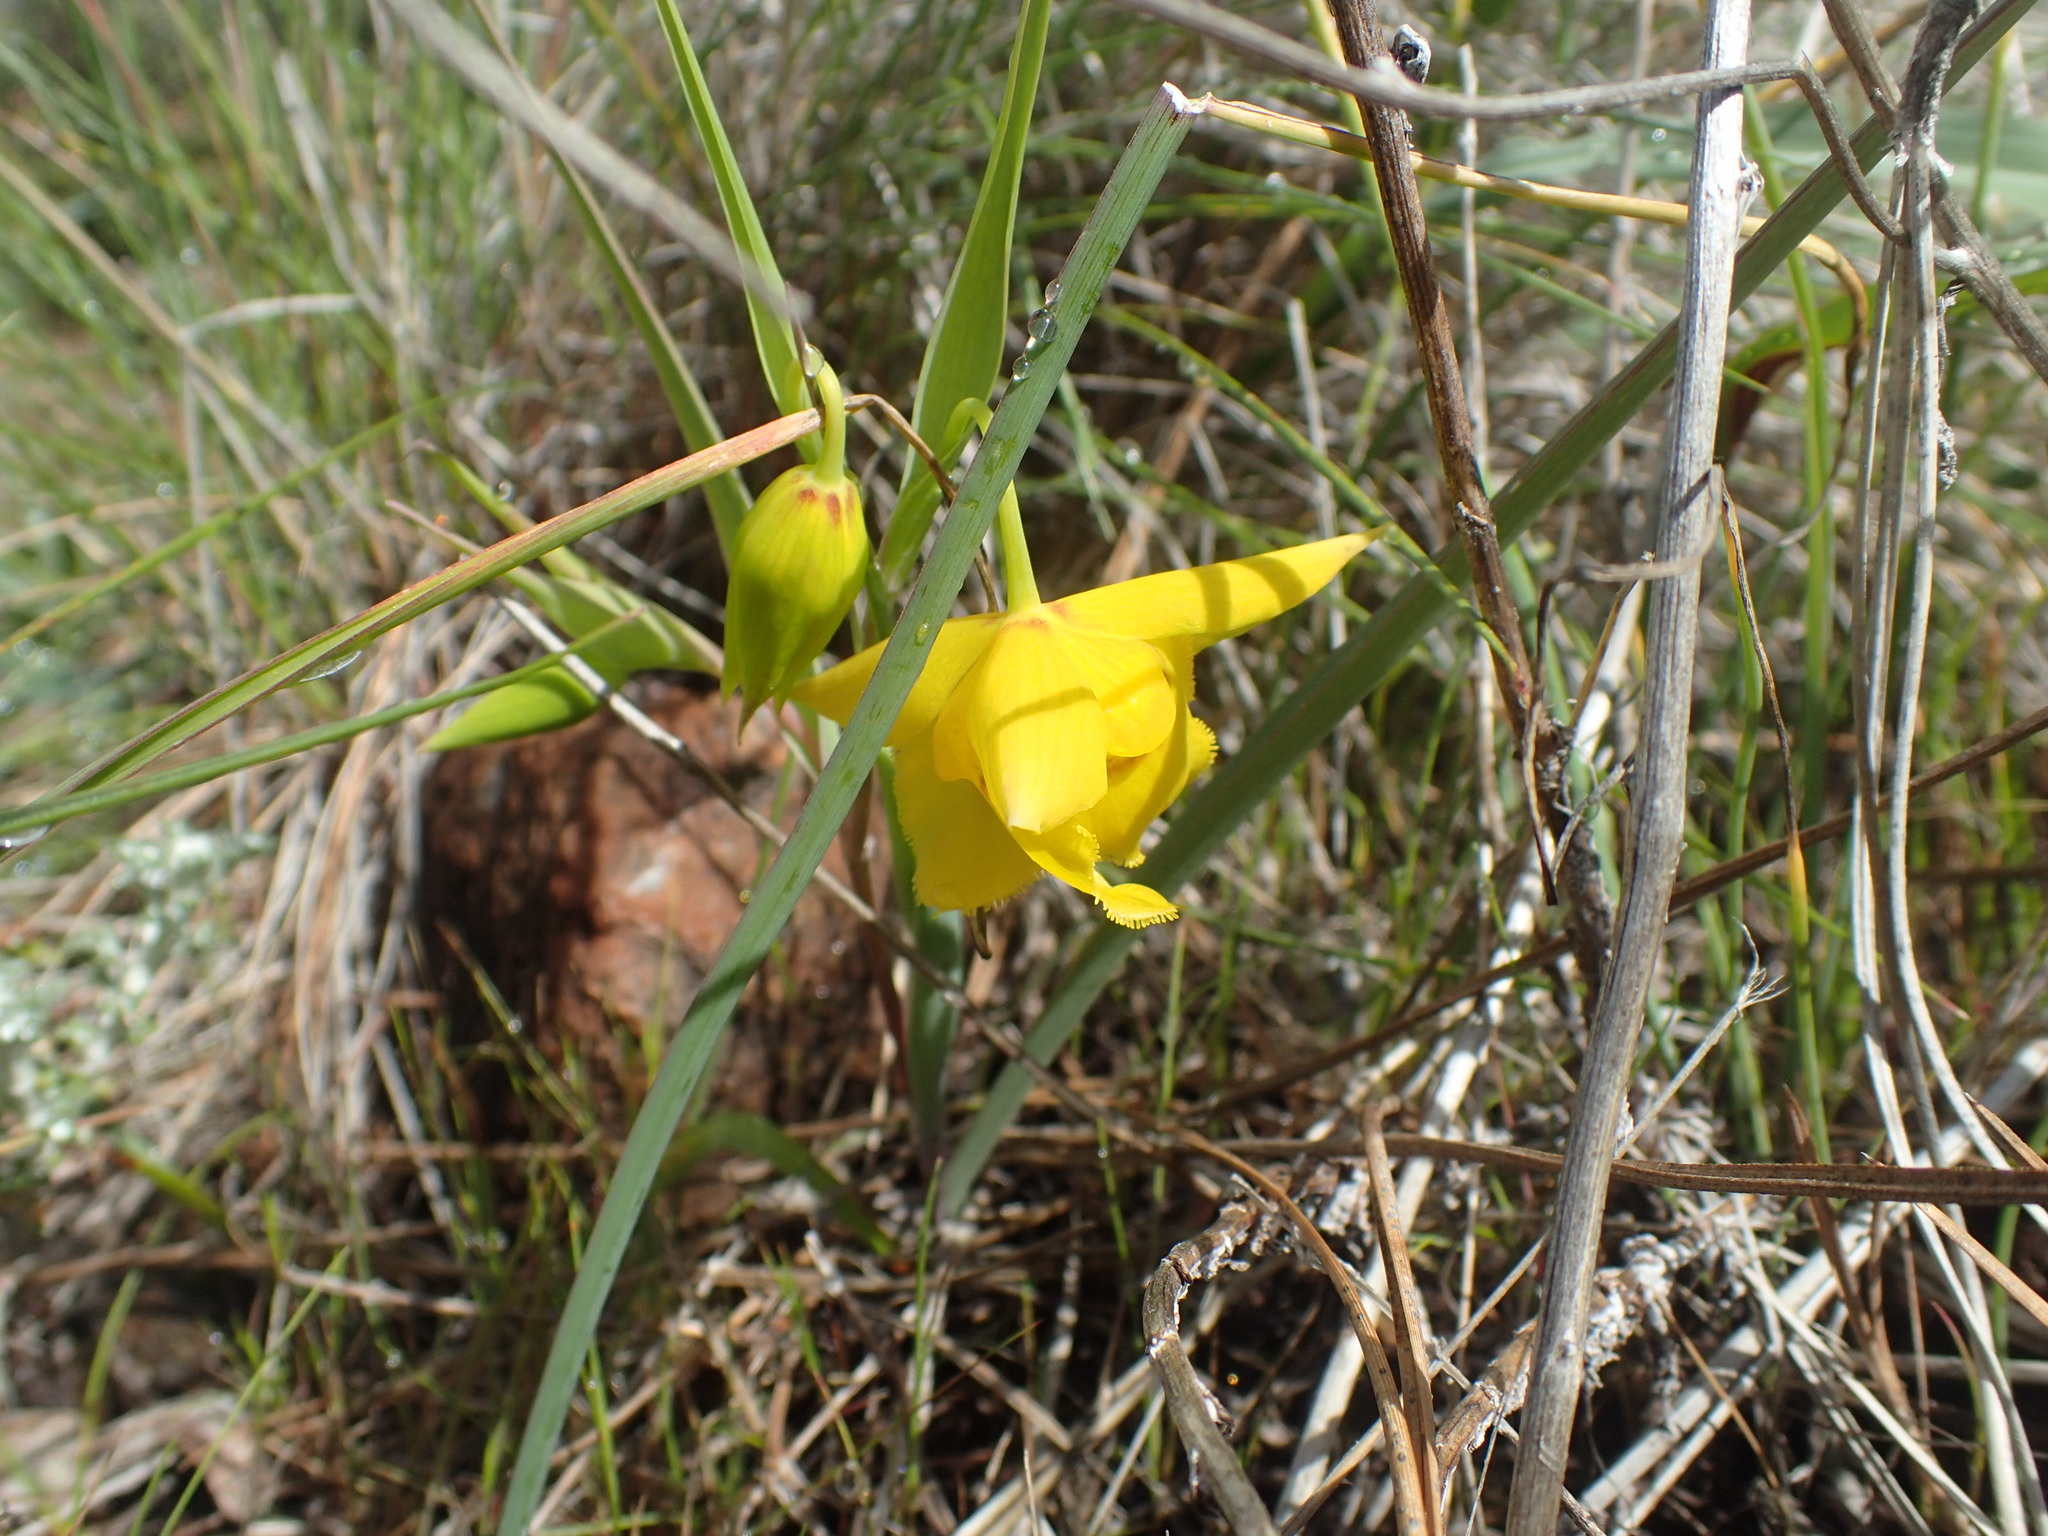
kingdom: Plantae
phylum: Tracheophyta
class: Liliopsida
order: Liliales
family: Liliaceae
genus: Calochortus
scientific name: Calochortus amabilis
